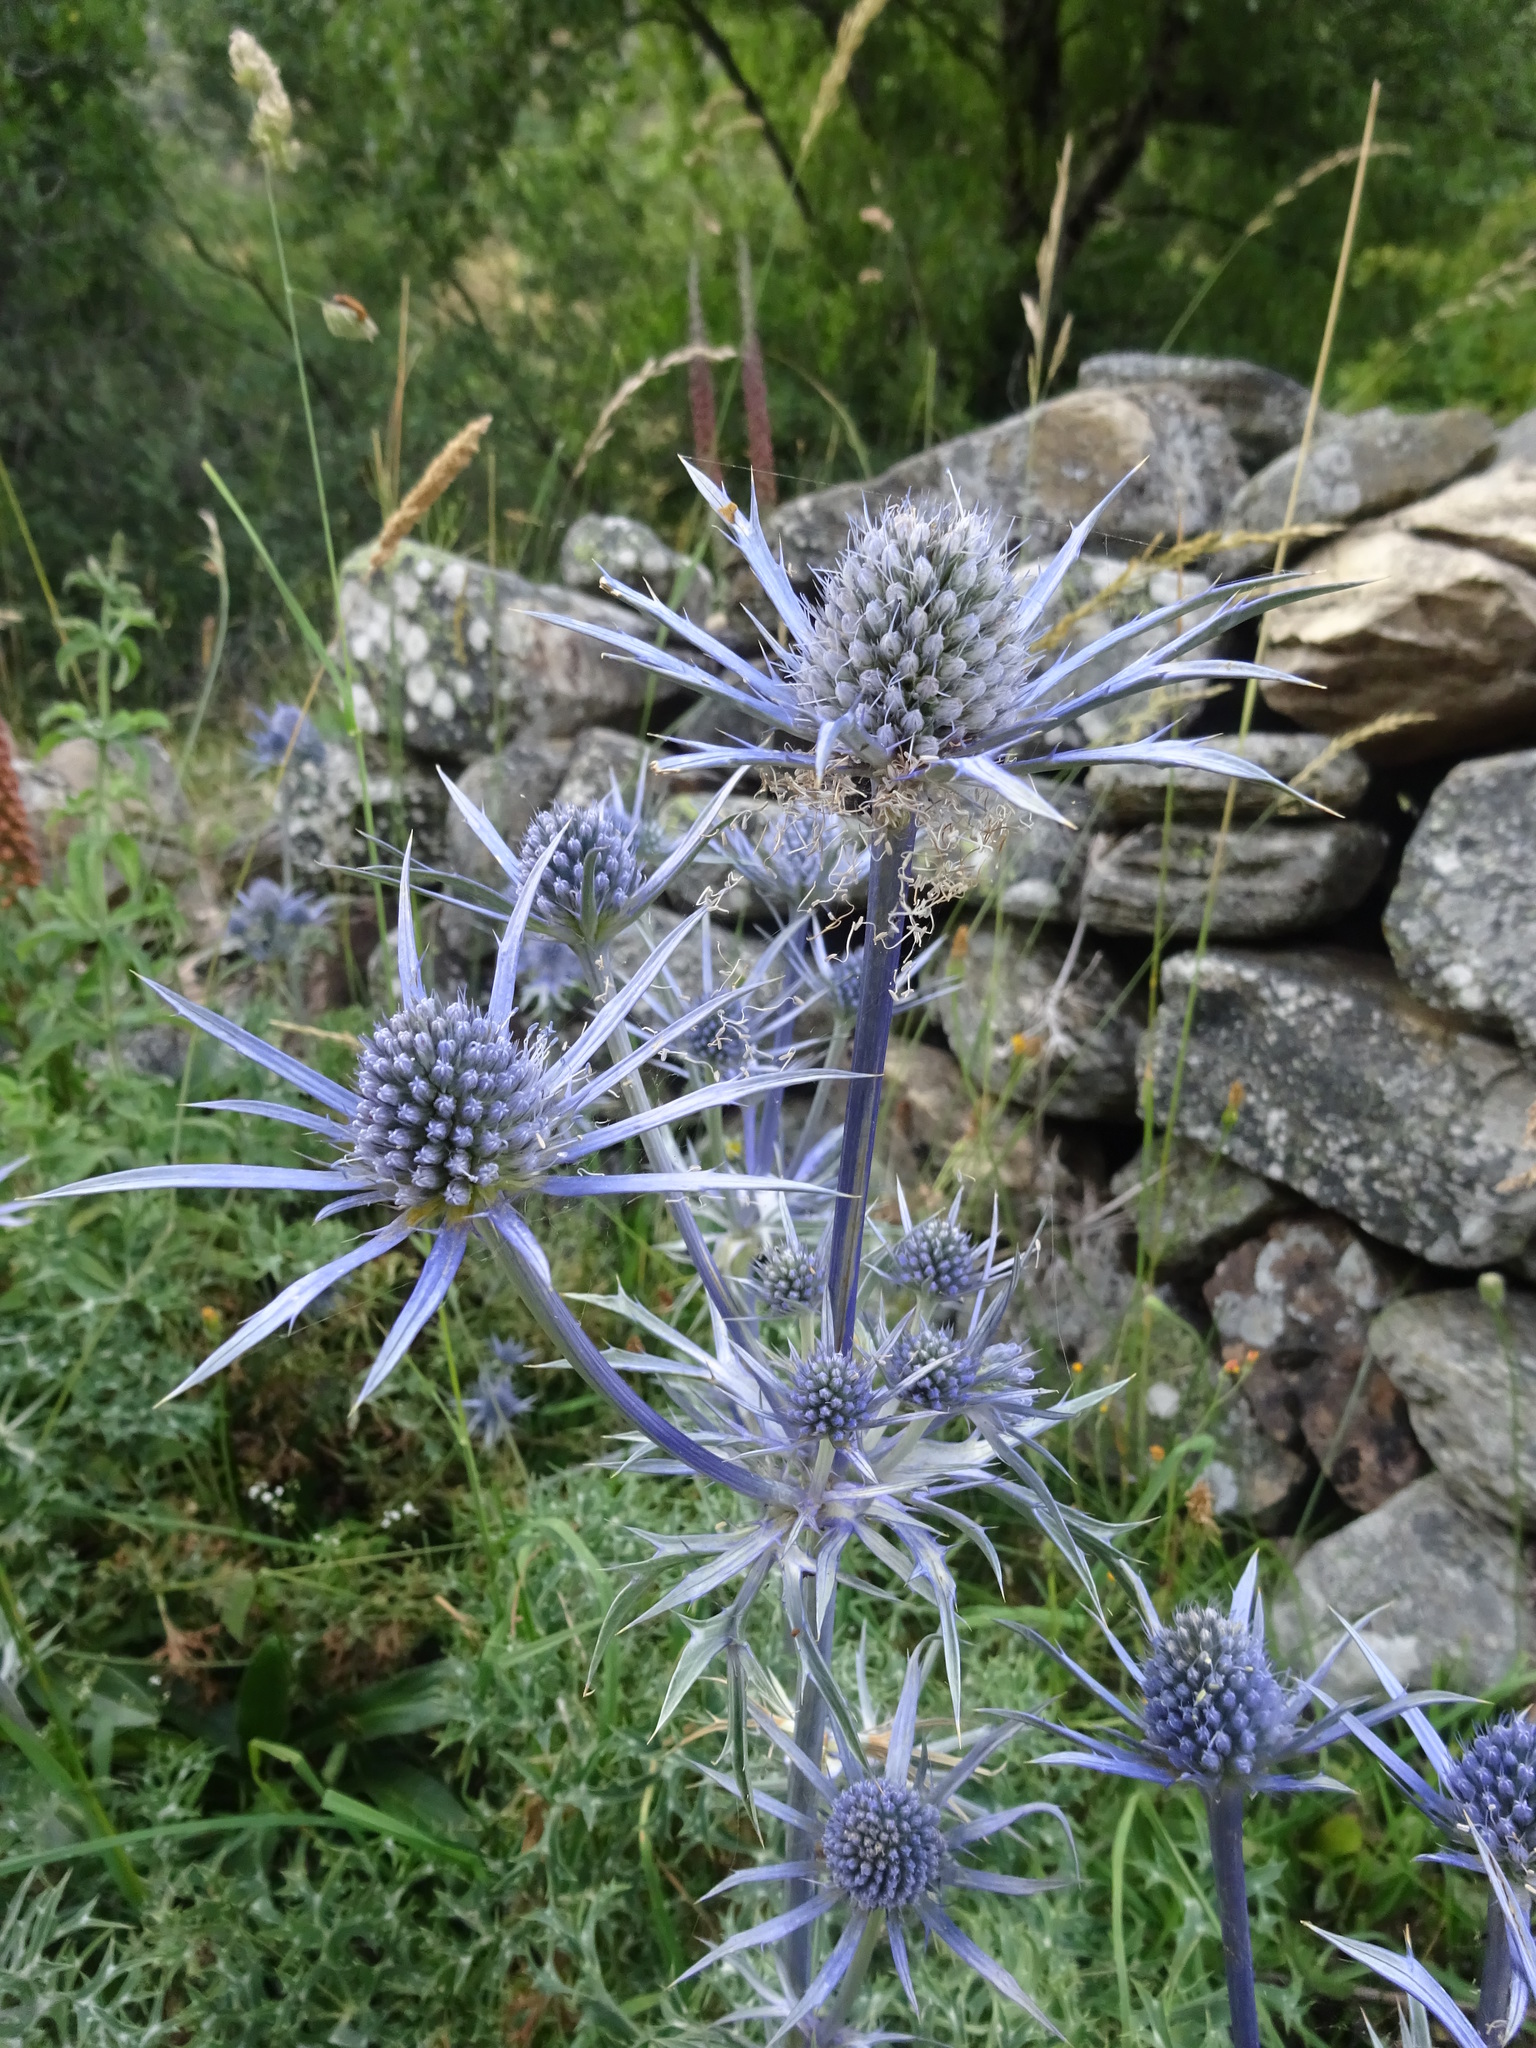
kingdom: Plantae
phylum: Tracheophyta
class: Magnoliopsida
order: Apiales
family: Apiaceae
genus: Eryngium
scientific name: Eryngium bourgatii
